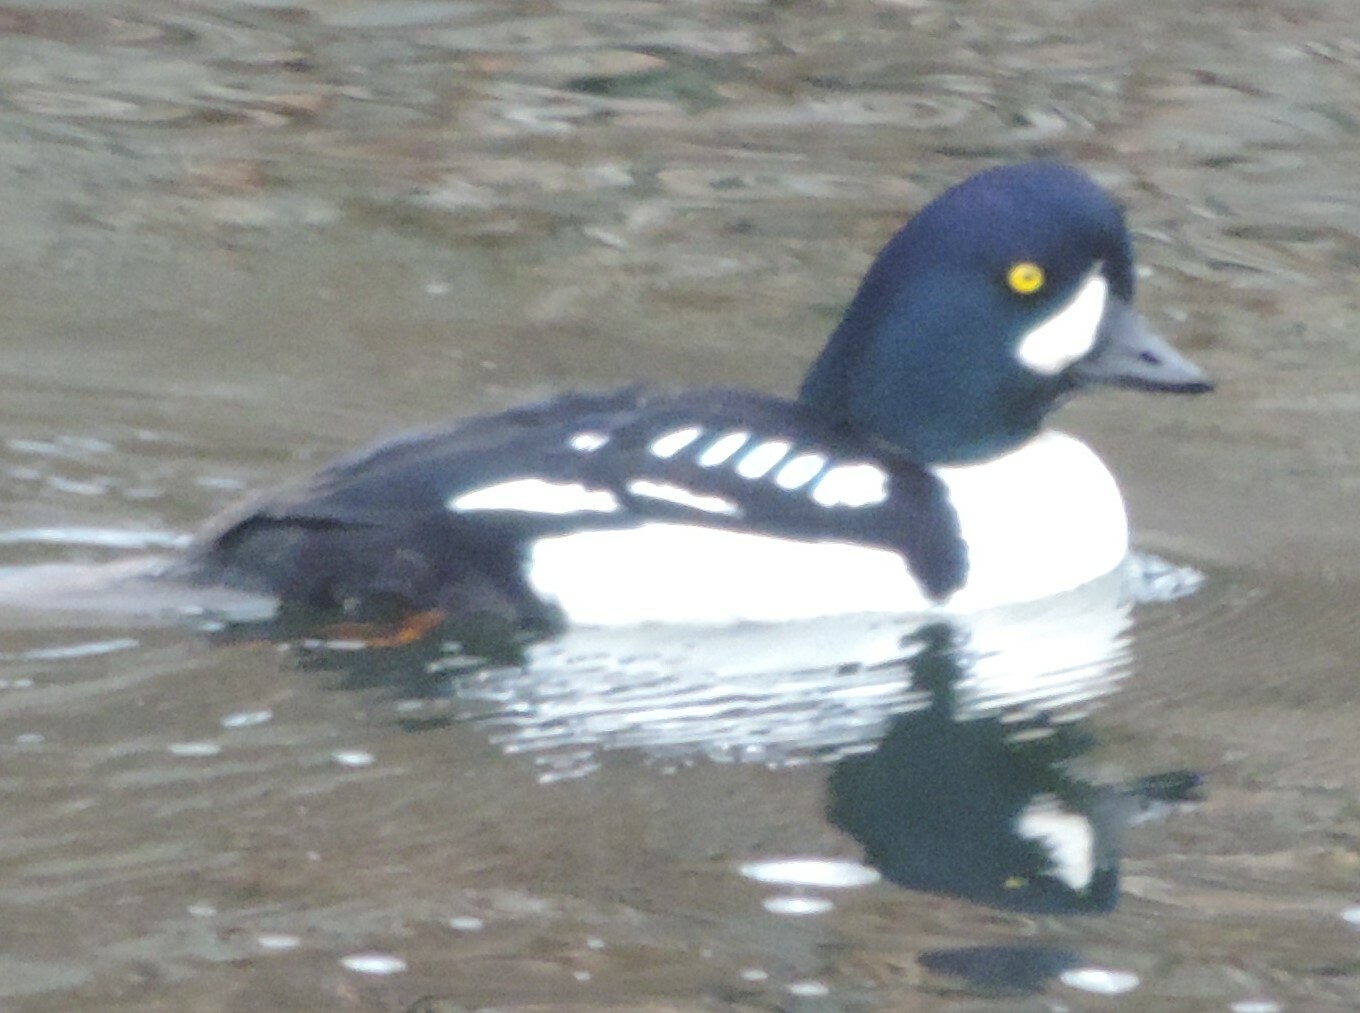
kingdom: Animalia
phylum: Chordata
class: Aves
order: Anseriformes
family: Anatidae
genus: Bucephala
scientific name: Bucephala islandica
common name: Barrow's goldeneye
